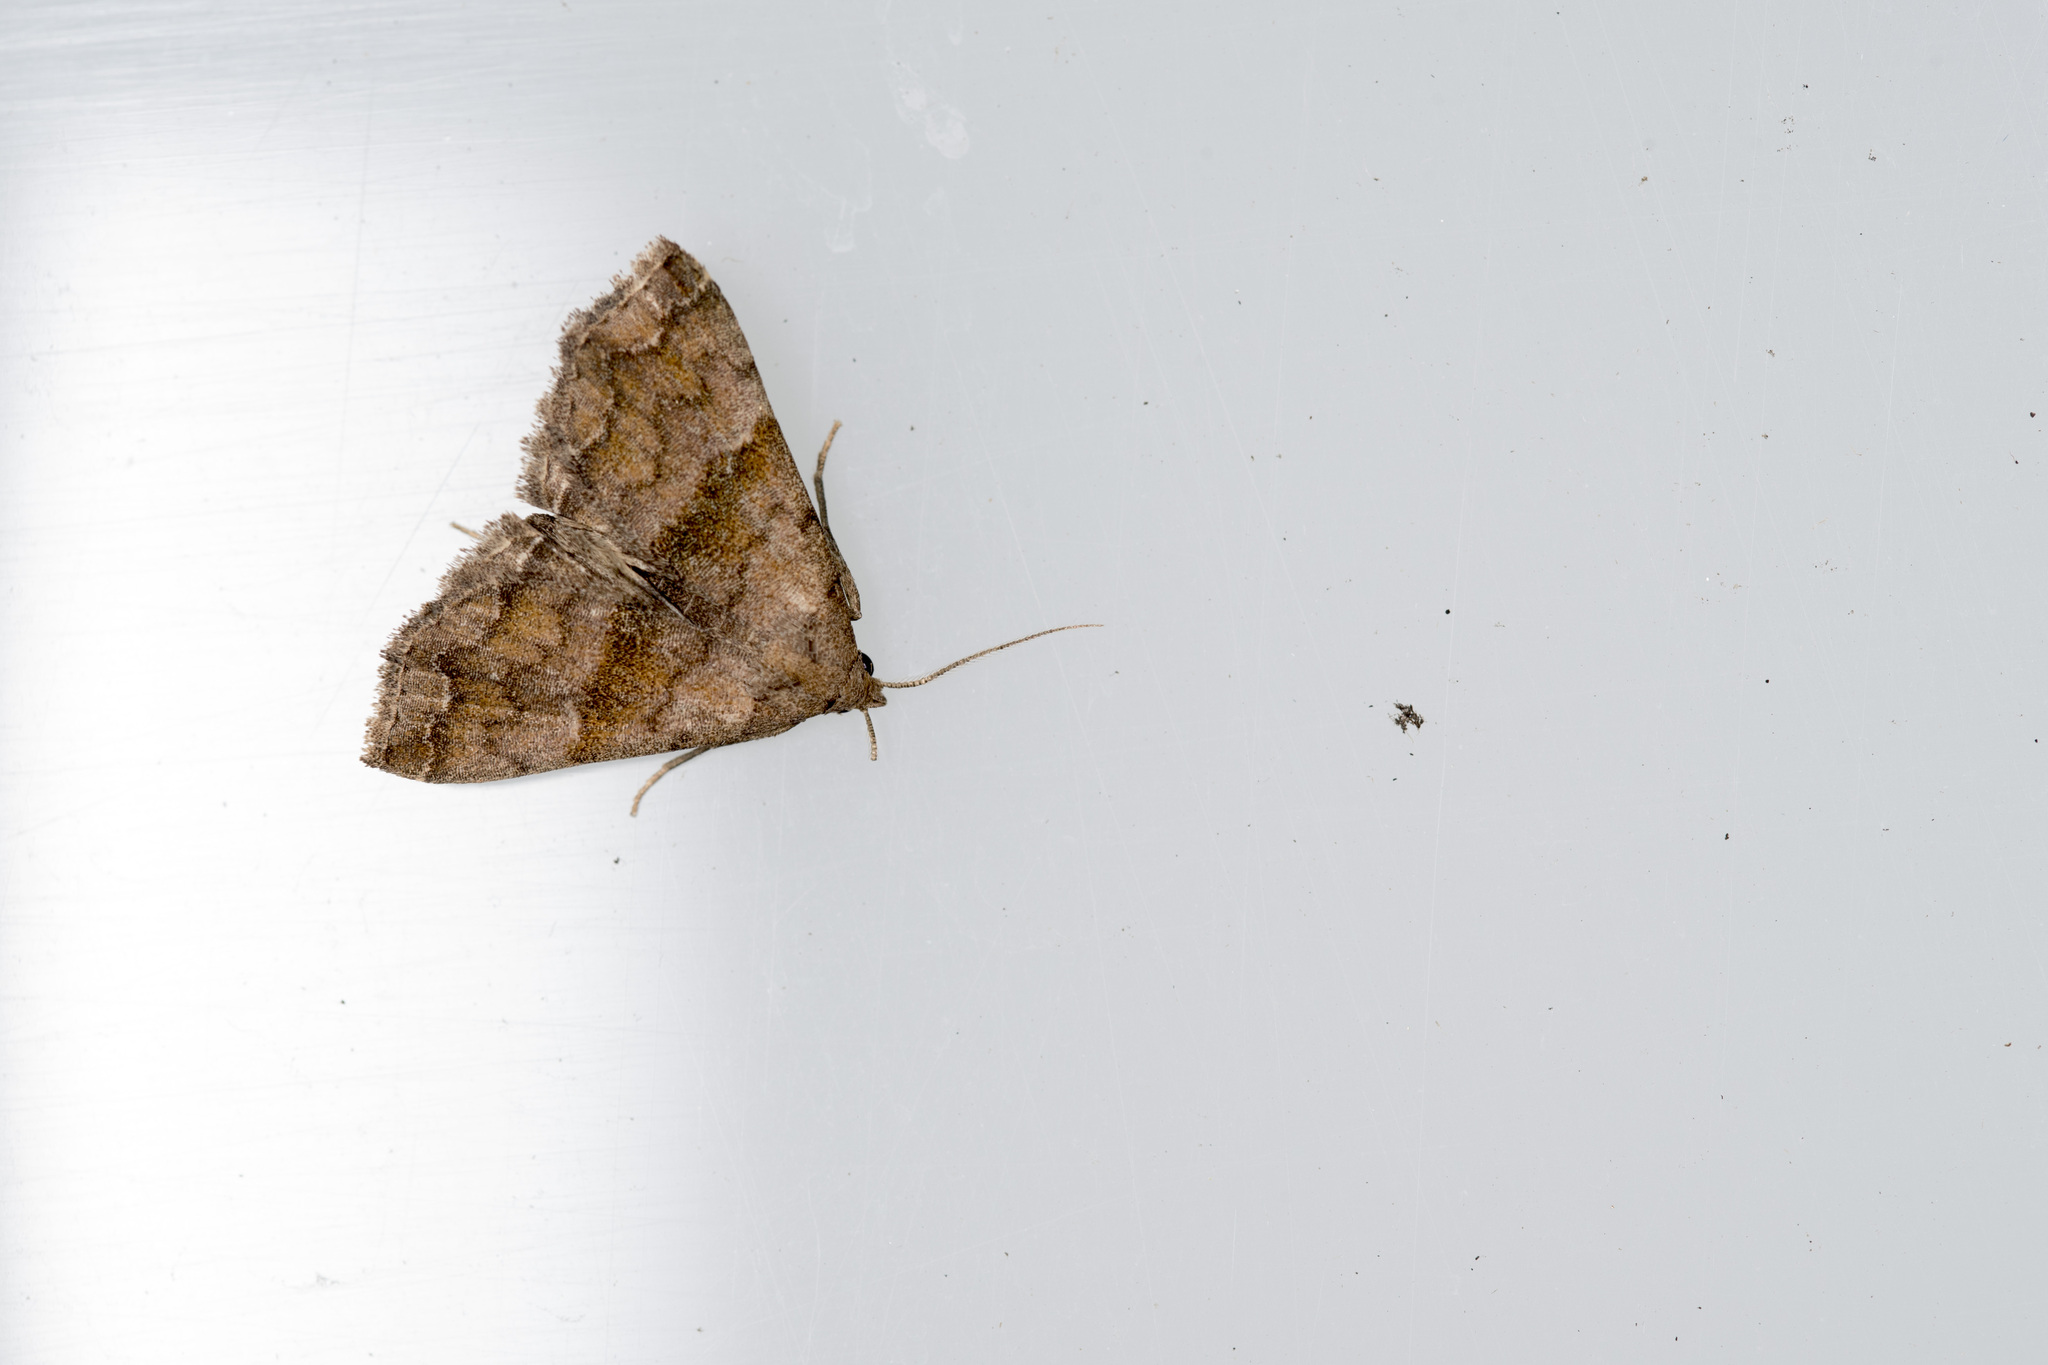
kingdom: Animalia
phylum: Arthropoda
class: Insecta
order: Lepidoptera
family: Erebidae
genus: Polypogon
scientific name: Polypogon Hipoepa fractalis
